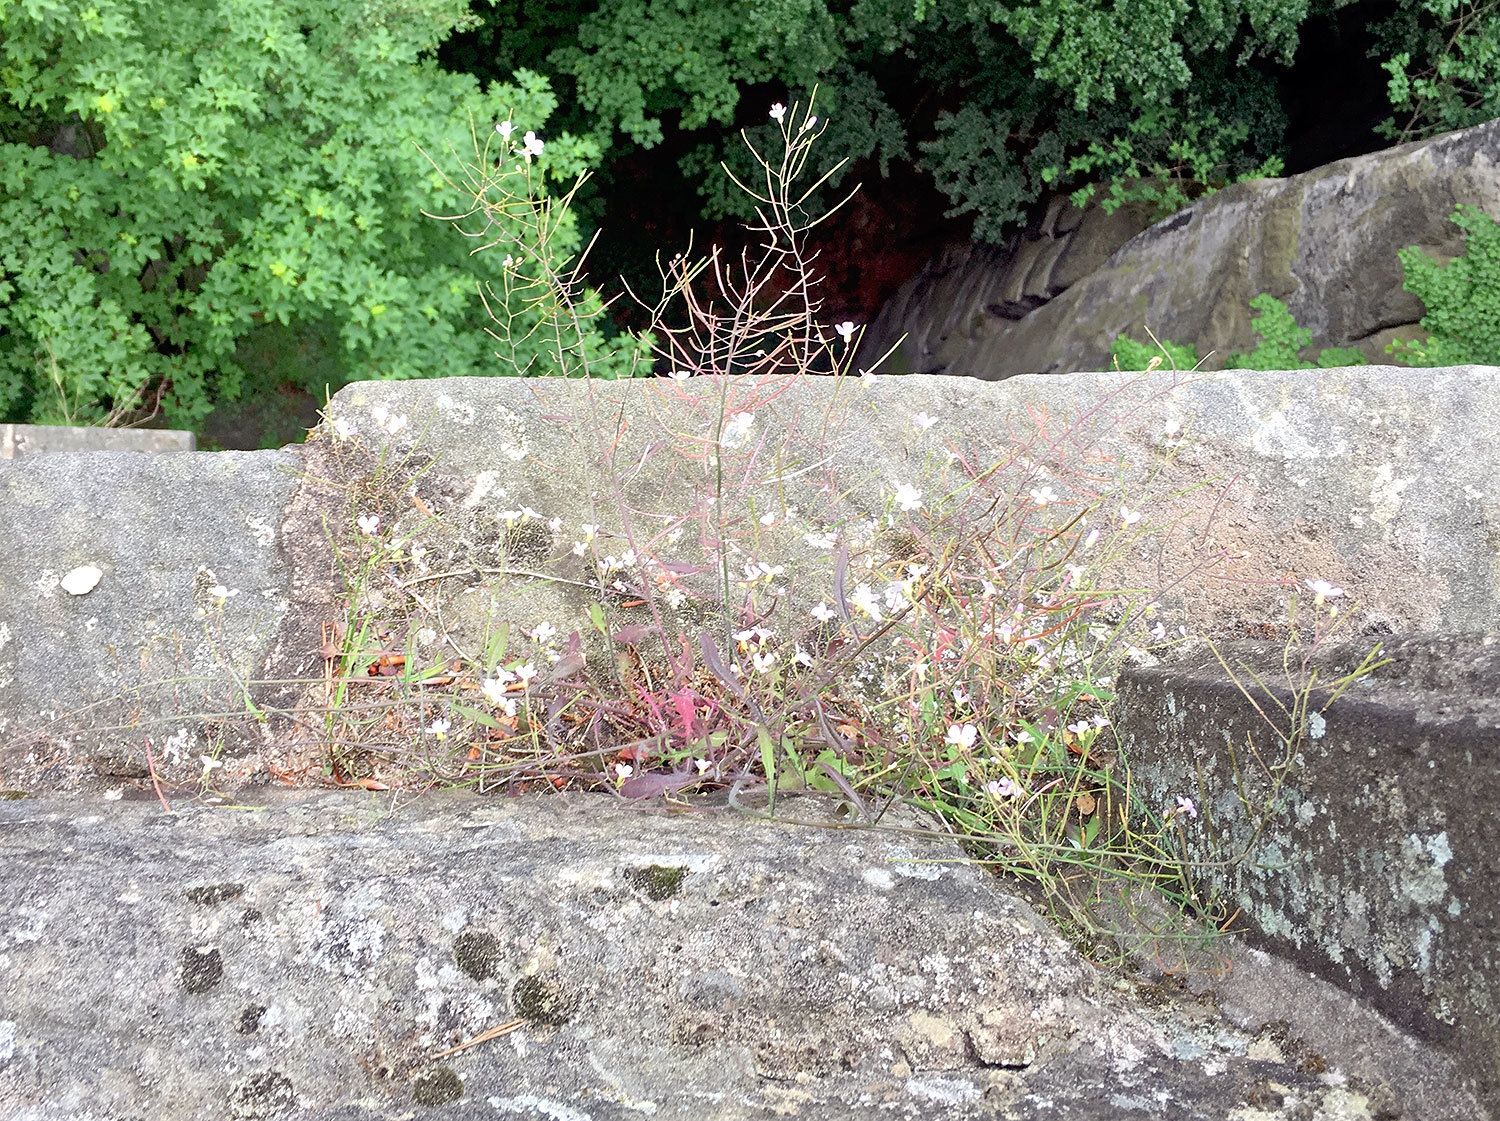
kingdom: Plantae
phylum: Tracheophyta
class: Magnoliopsida
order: Brassicales
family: Brassicaceae
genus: Arabidopsis
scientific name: Arabidopsis arenosa
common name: Sand rock-cress
